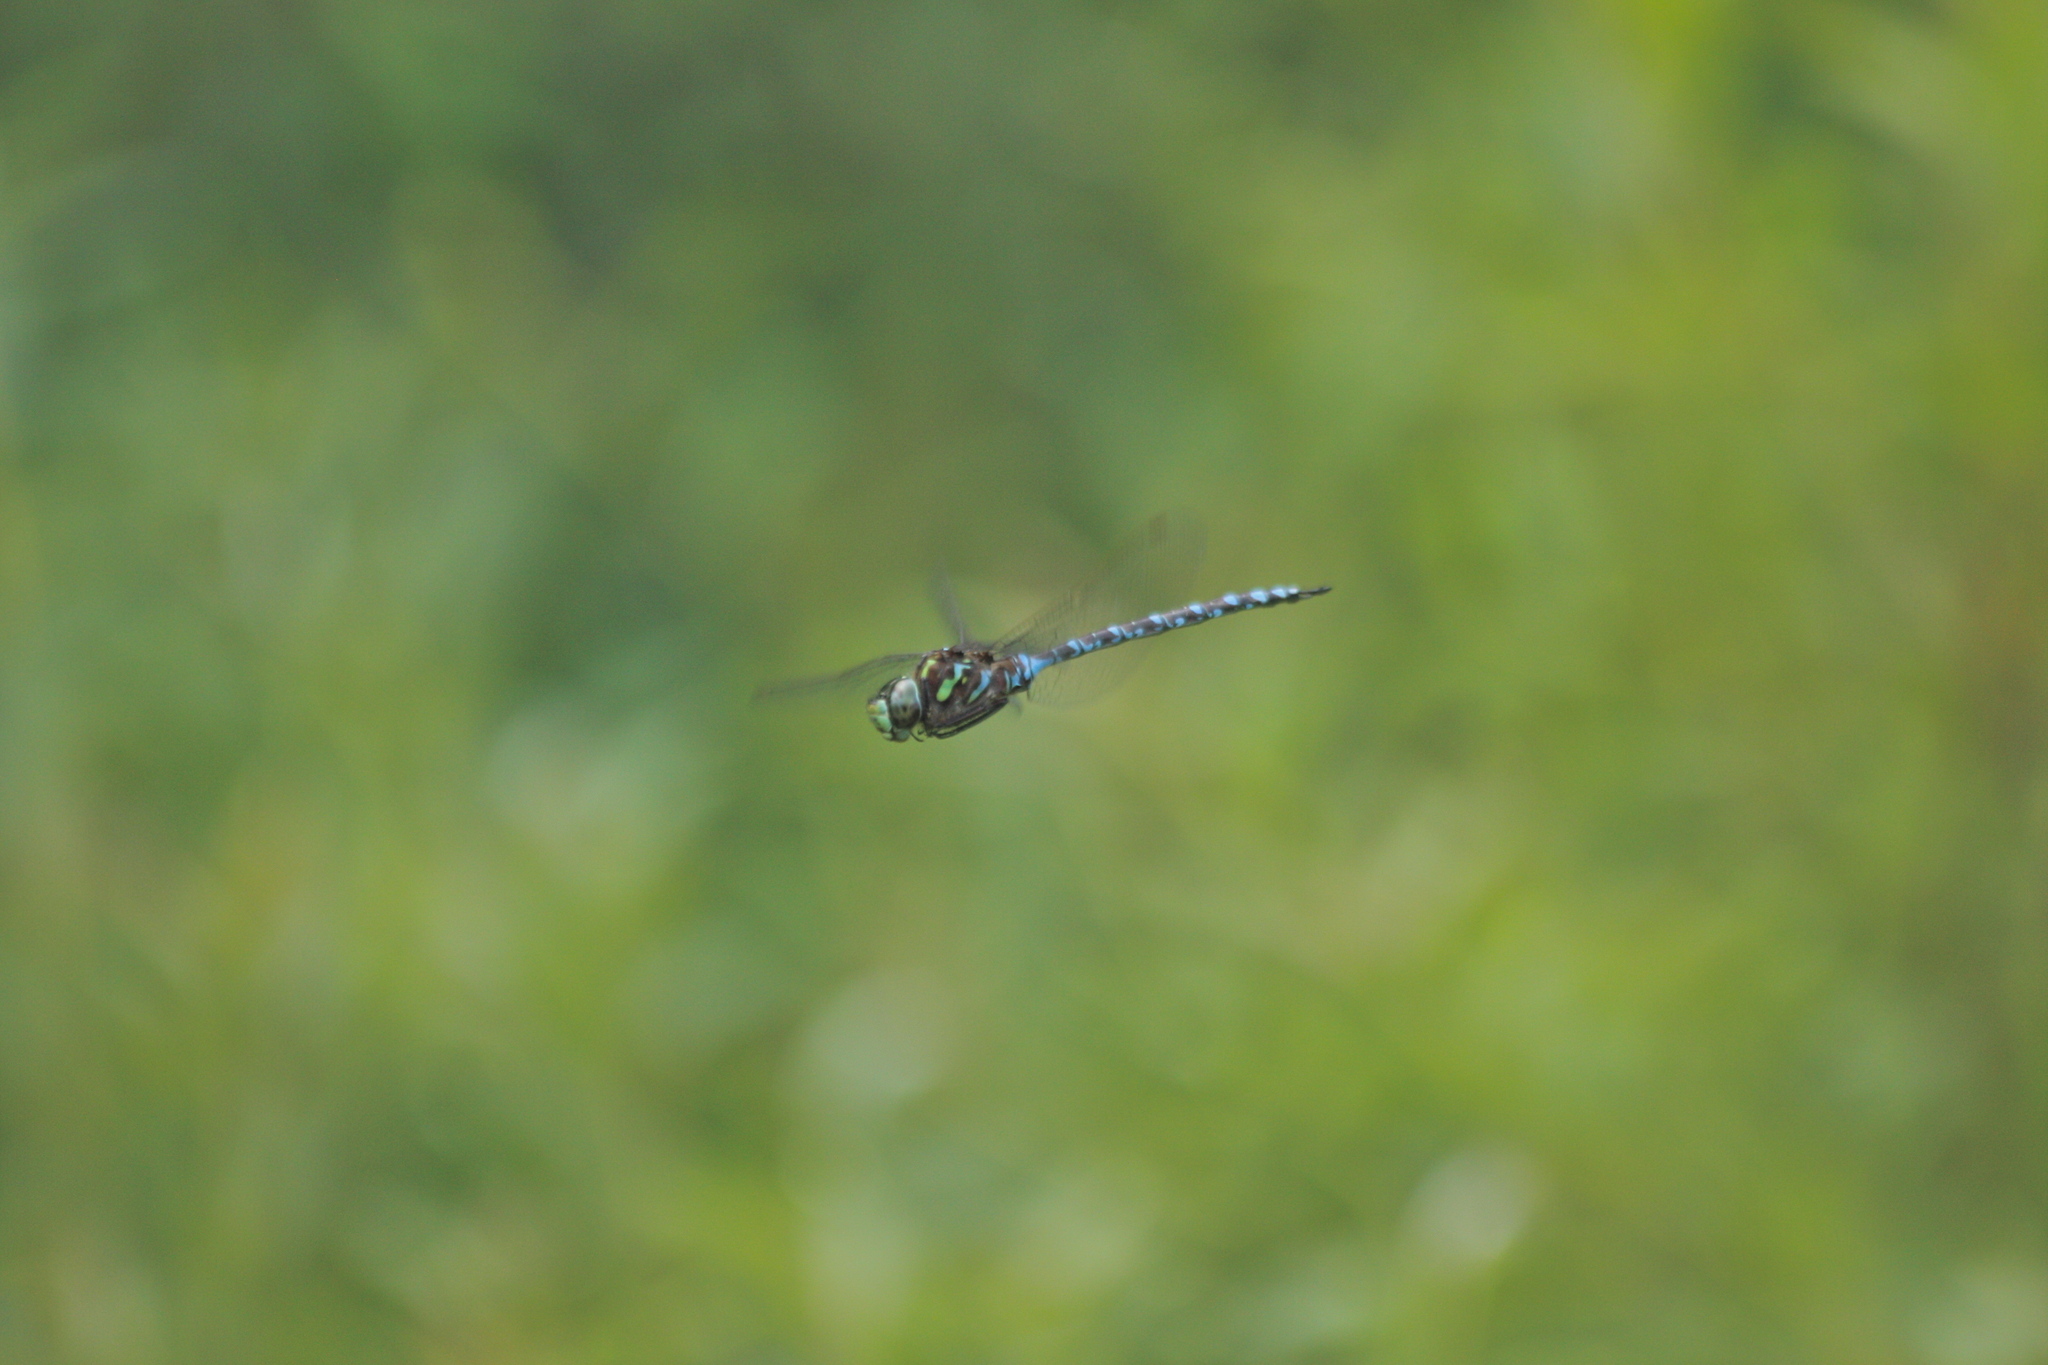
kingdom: Animalia
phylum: Arthropoda
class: Insecta
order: Odonata
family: Aeshnidae
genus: Aeshna
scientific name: Aeshna canadensis
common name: Canada darner
